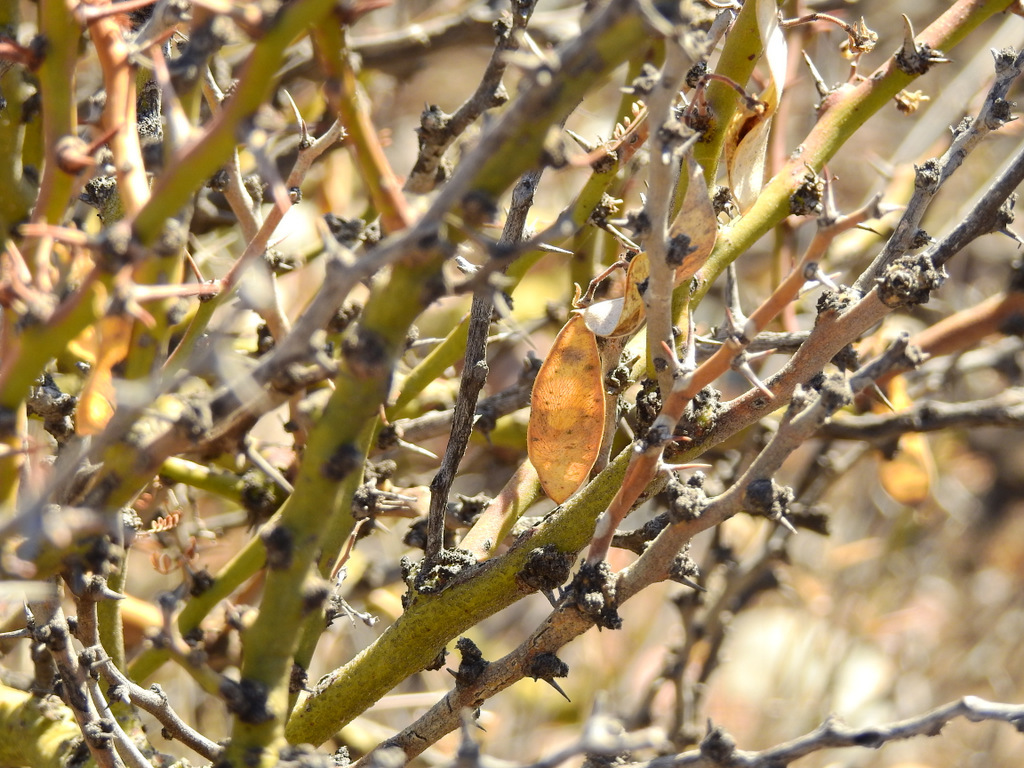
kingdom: Plantae
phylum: Tracheophyta
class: Magnoliopsida
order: Fabales
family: Fabaceae
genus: Parkinsonia
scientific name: Parkinsonia praecox
